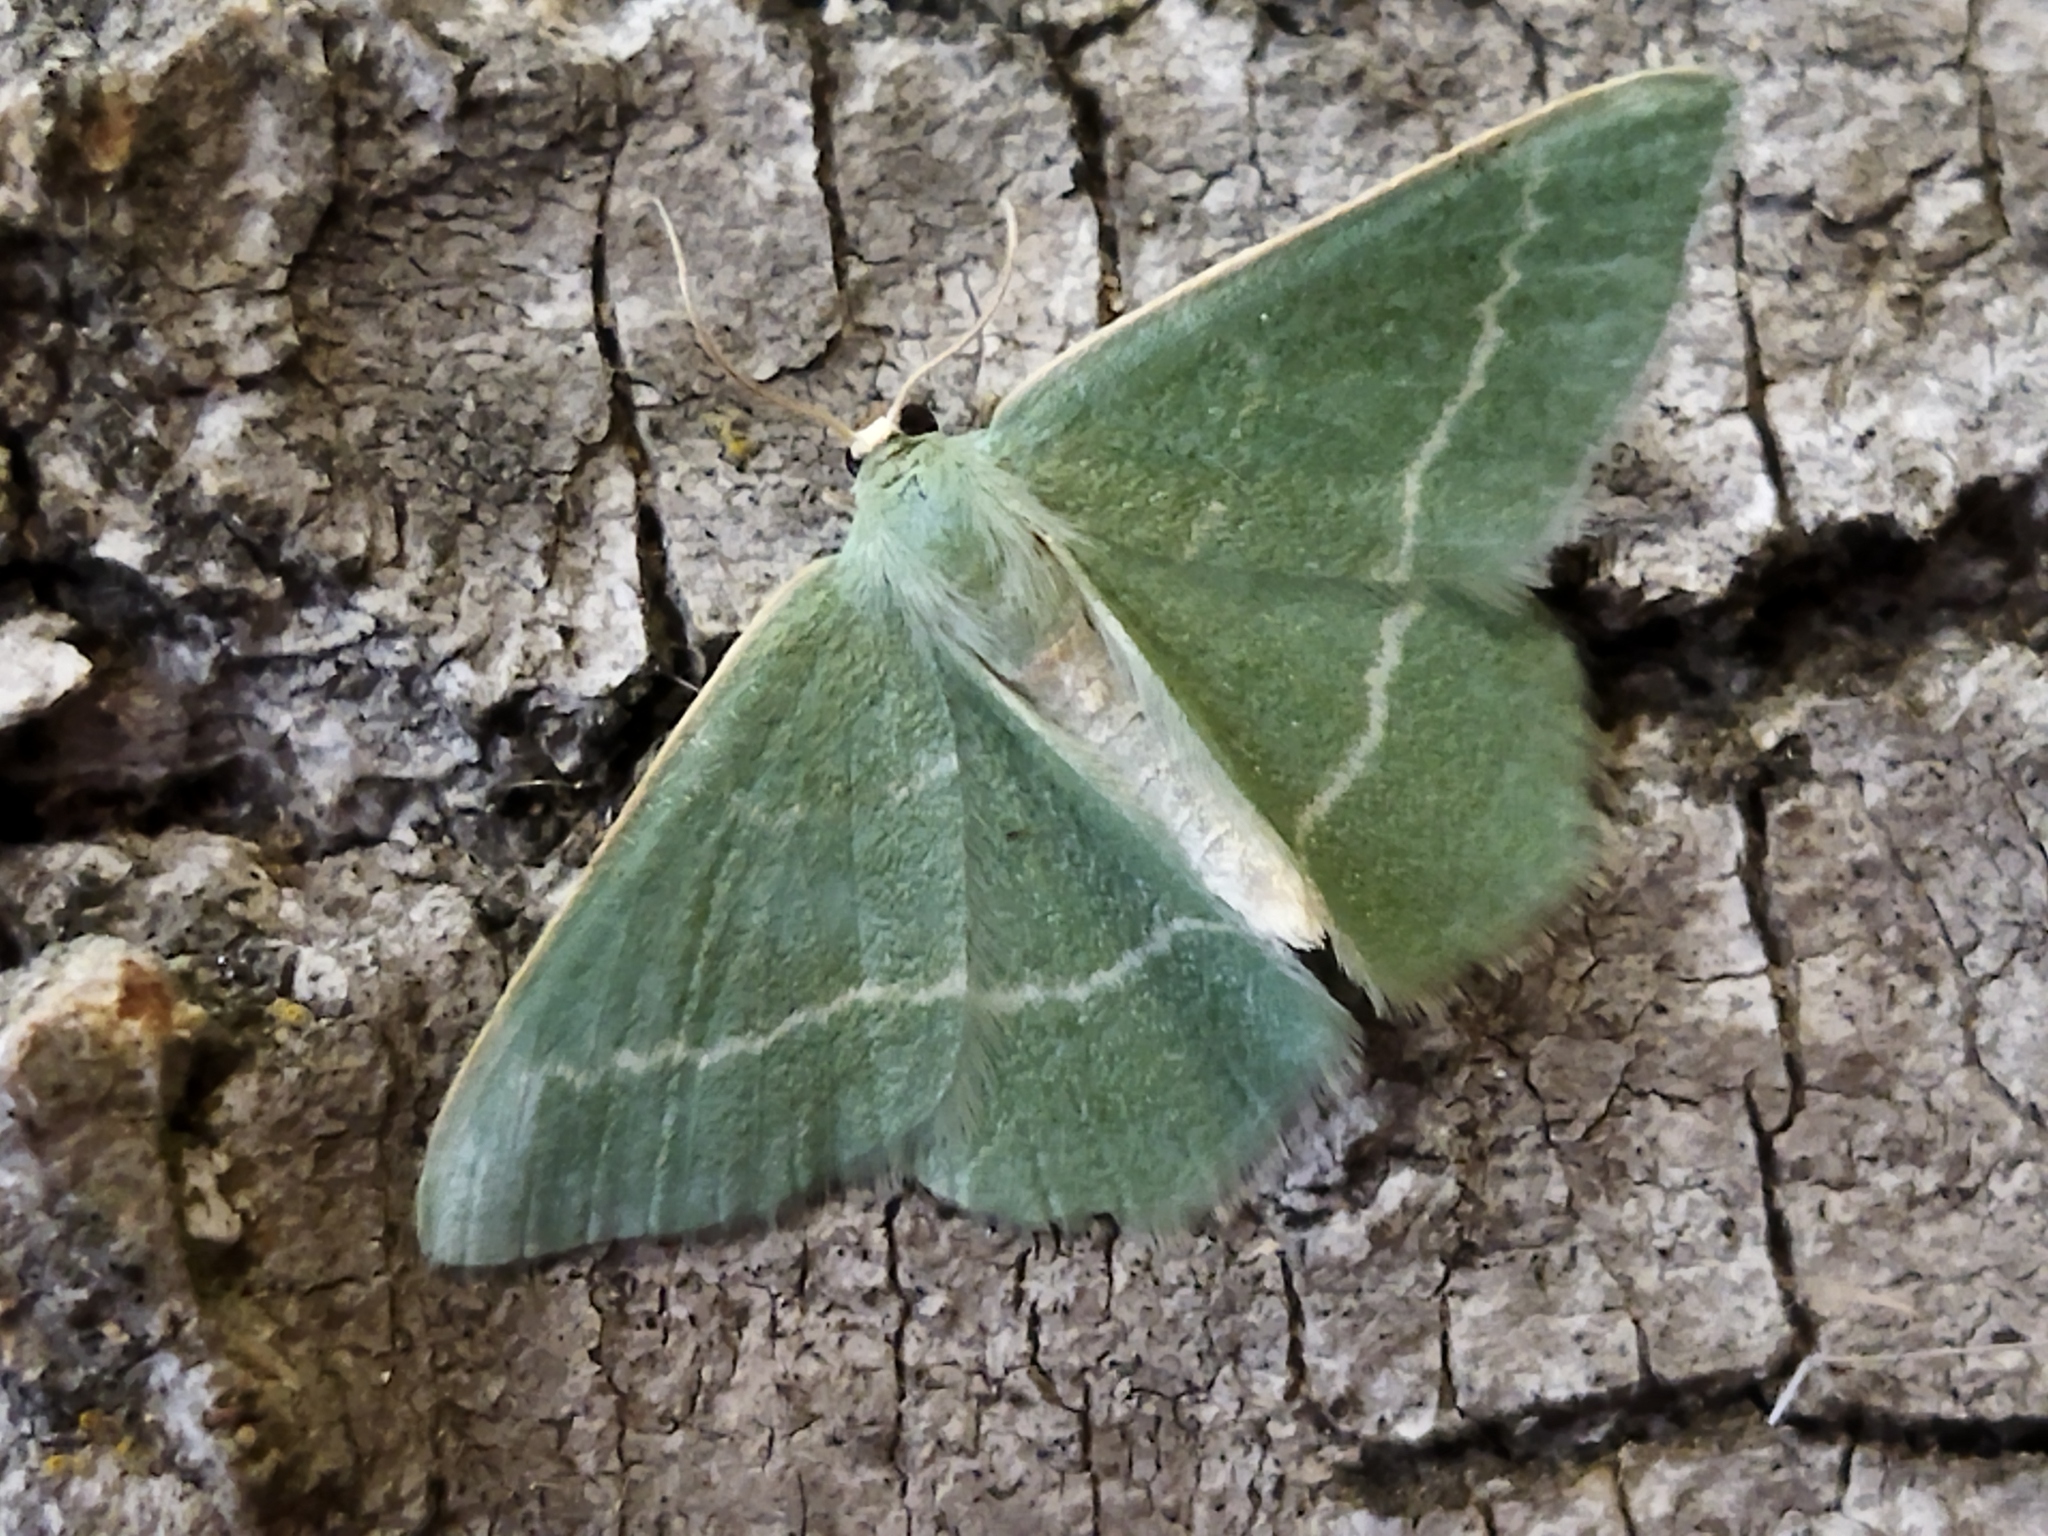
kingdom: Animalia
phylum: Arthropoda
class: Insecta
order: Lepidoptera
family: Geometridae
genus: Chlorissa
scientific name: Chlorissa viridata
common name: Small grass emerald
